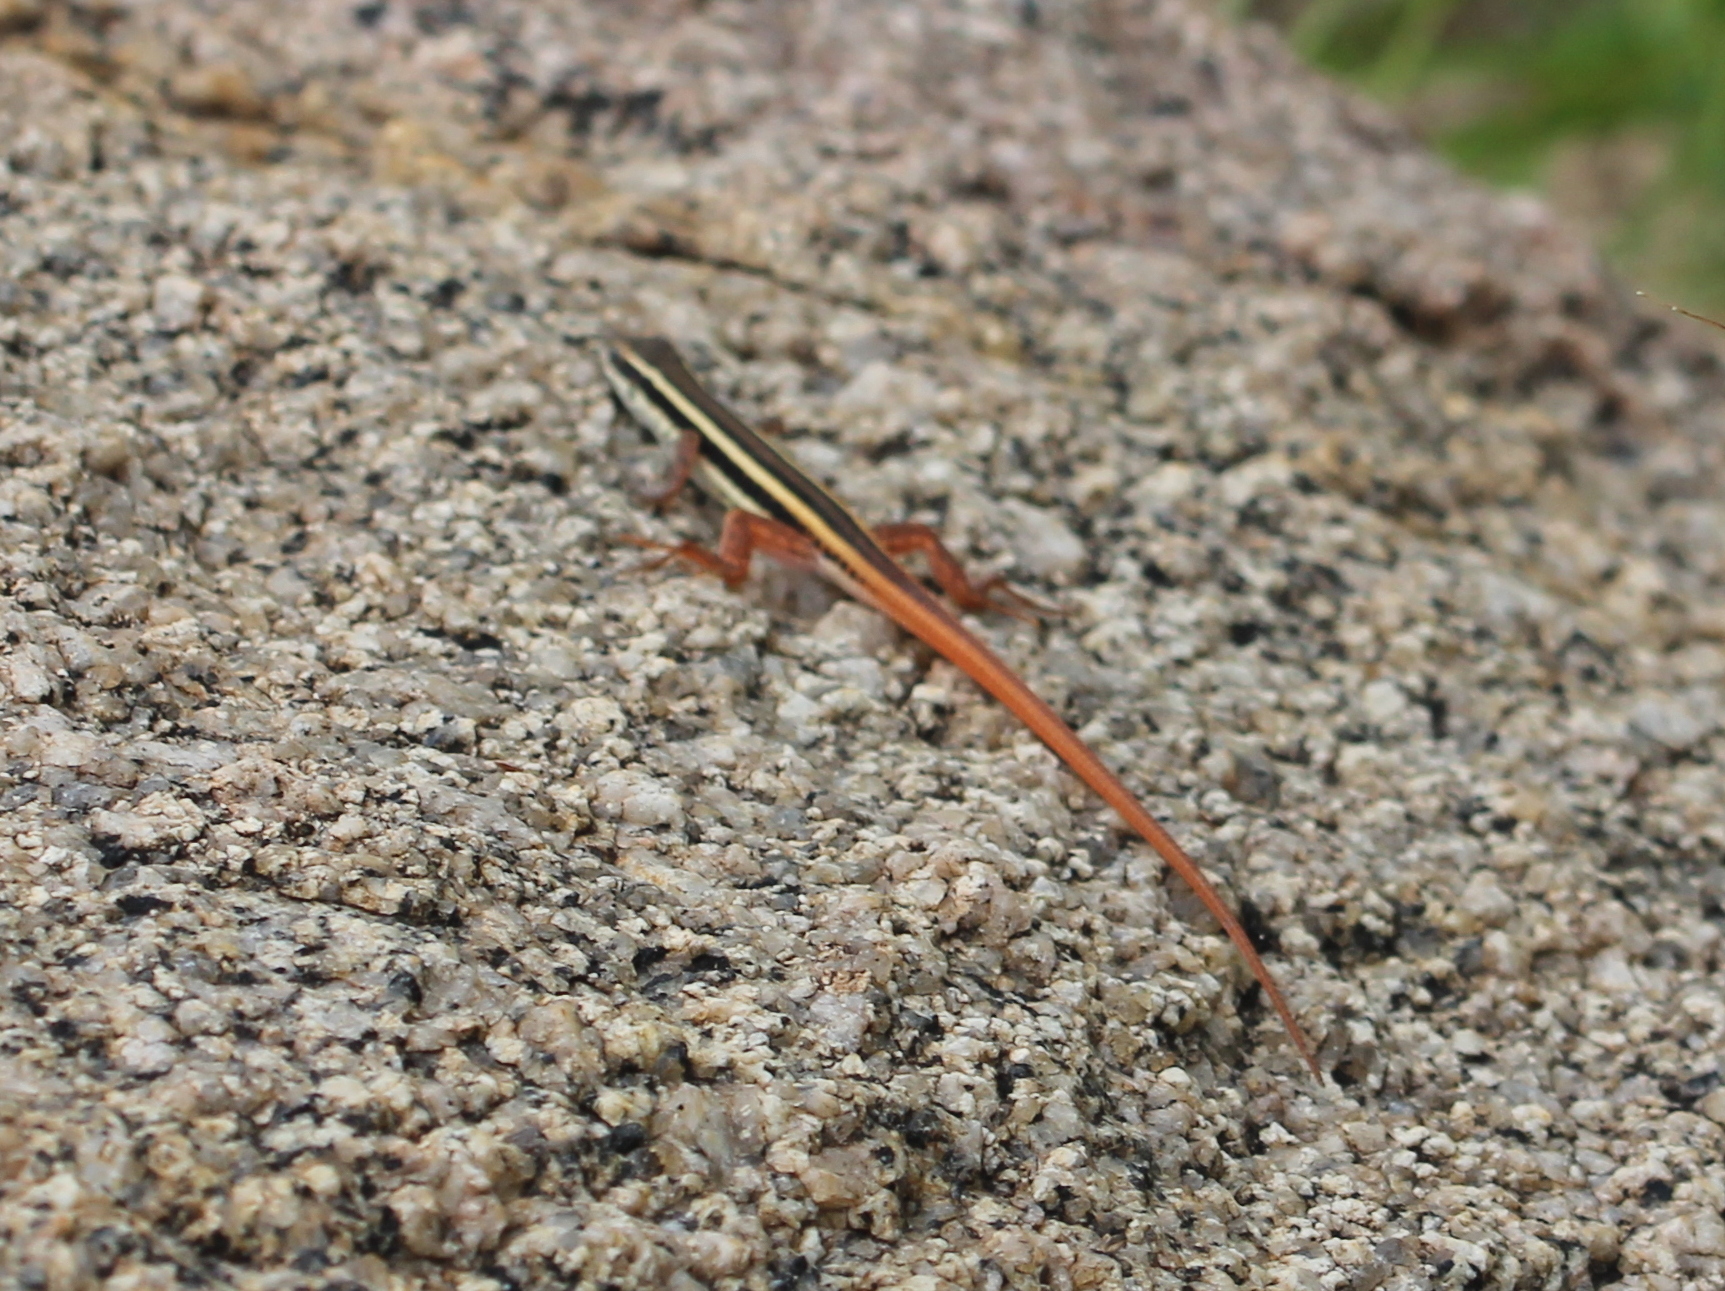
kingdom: Animalia
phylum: Chordata
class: Squamata
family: Lacertidae
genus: Ophisops
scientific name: Ophisops leschenaultii
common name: Leschenault's cabrita
